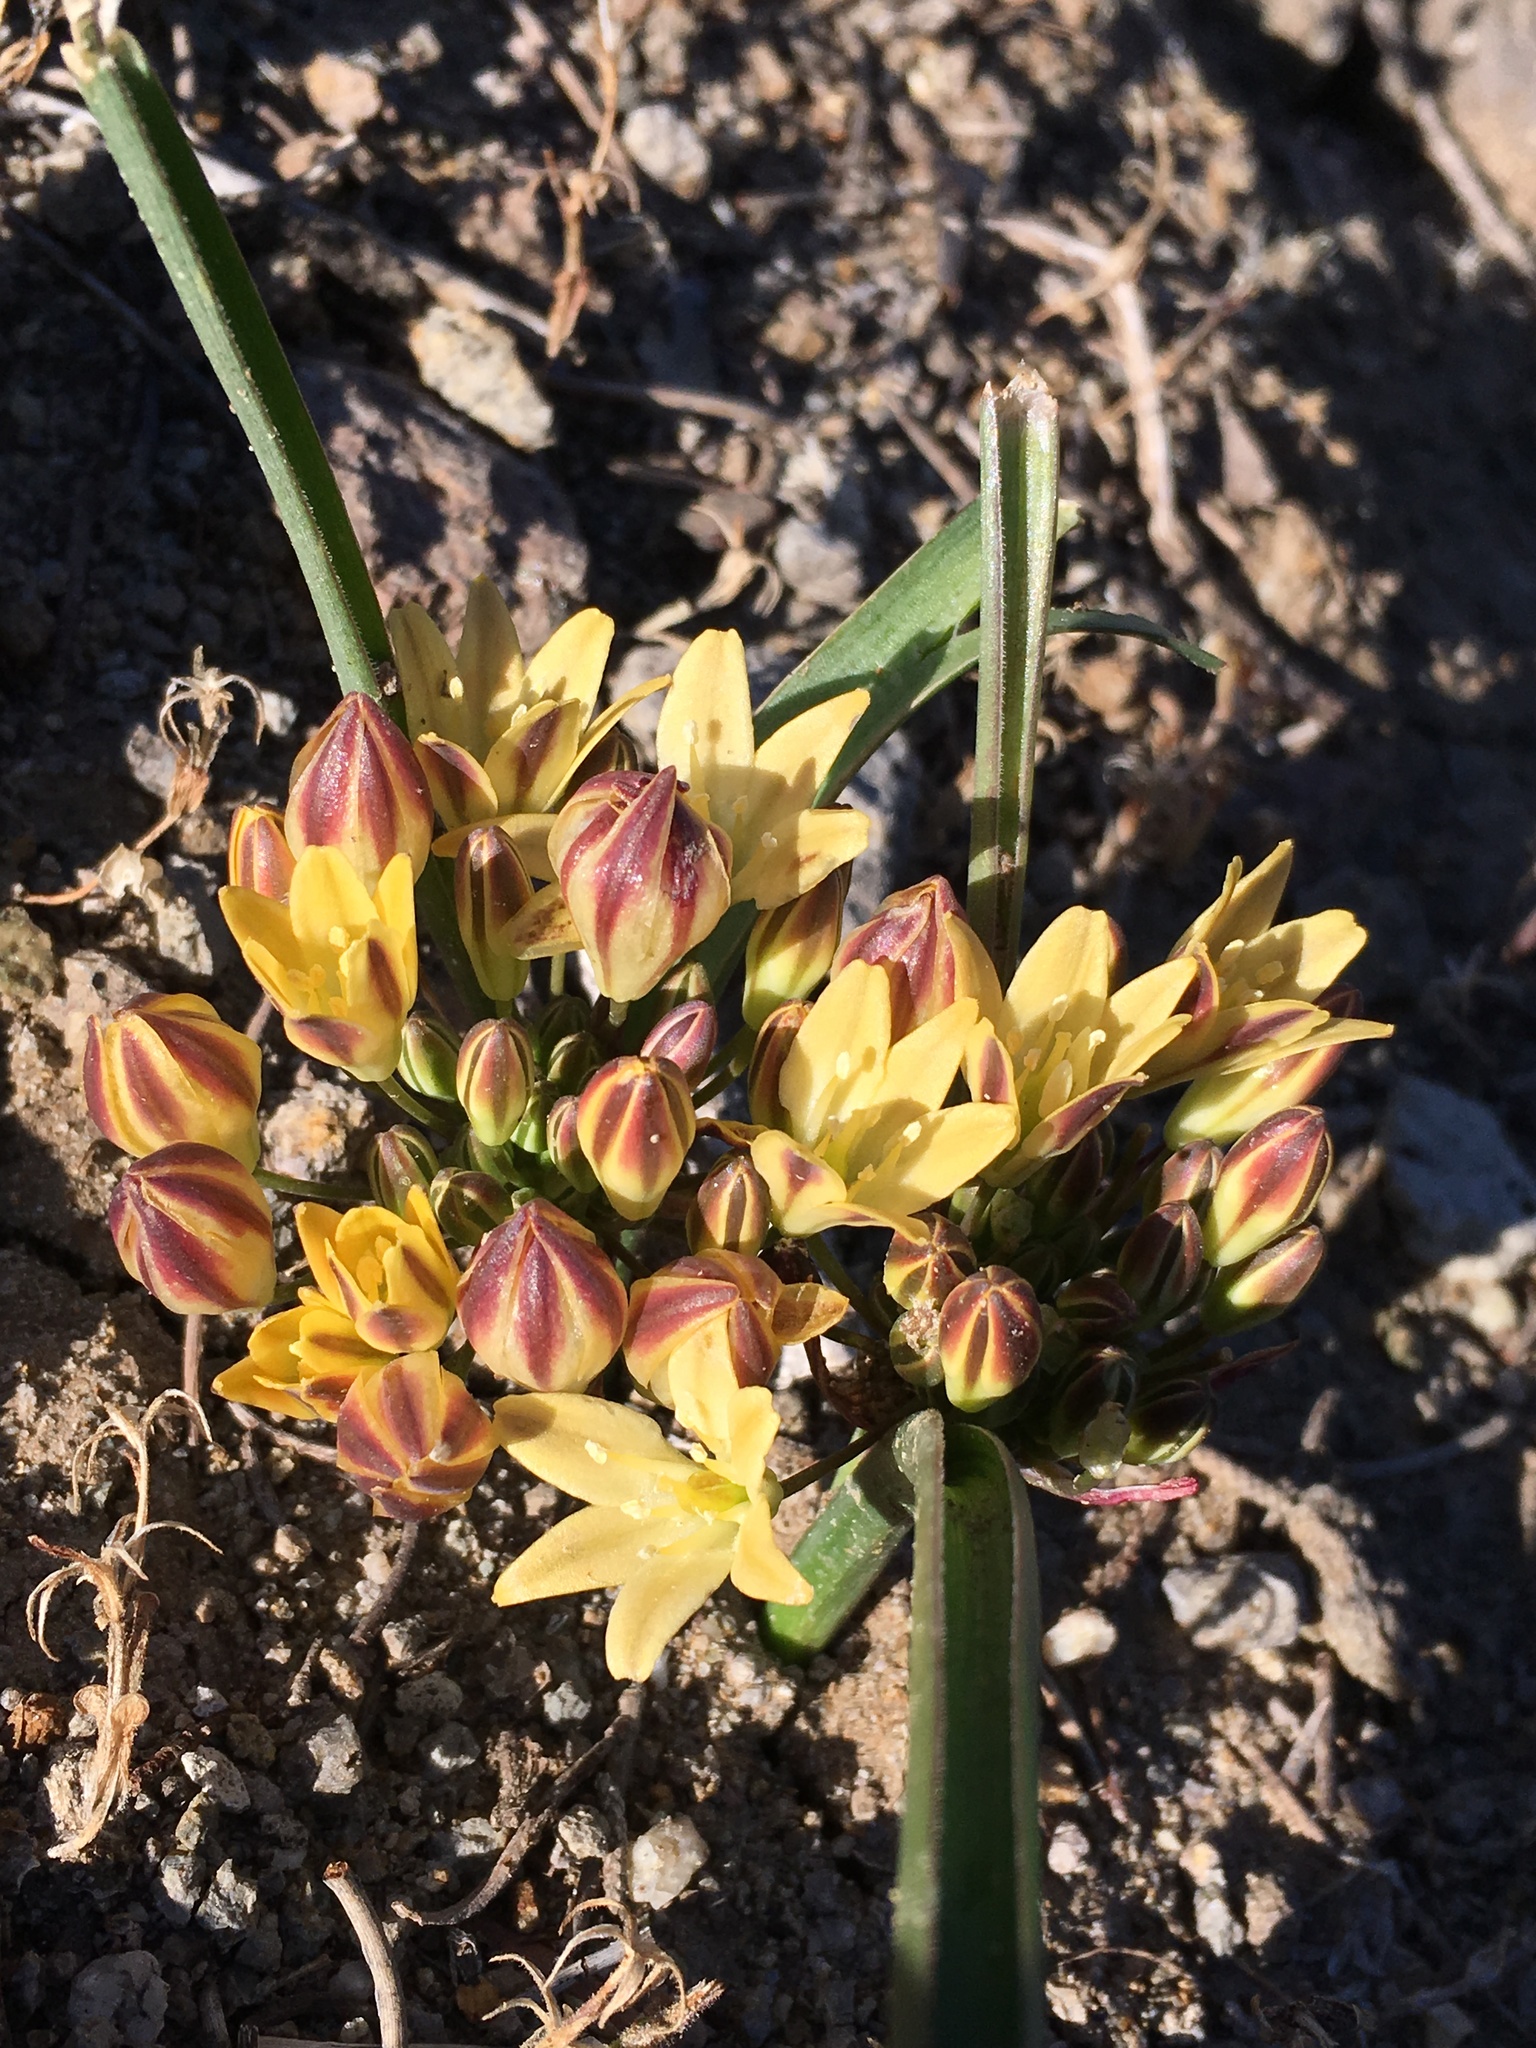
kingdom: Plantae
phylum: Tracheophyta
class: Liliopsida
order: Asparagales
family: Asparagaceae
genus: Triteleia
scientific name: Triteleia piutensis
